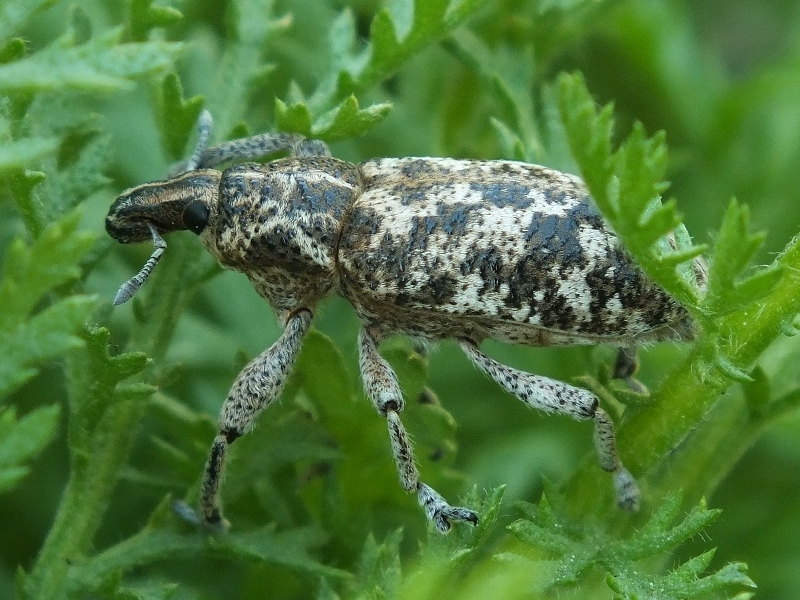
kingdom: Animalia
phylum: Arthropoda
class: Insecta
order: Coleoptera
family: Curculionidae
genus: Cyphocleonus
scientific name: Cyphocleonus dealbatus
